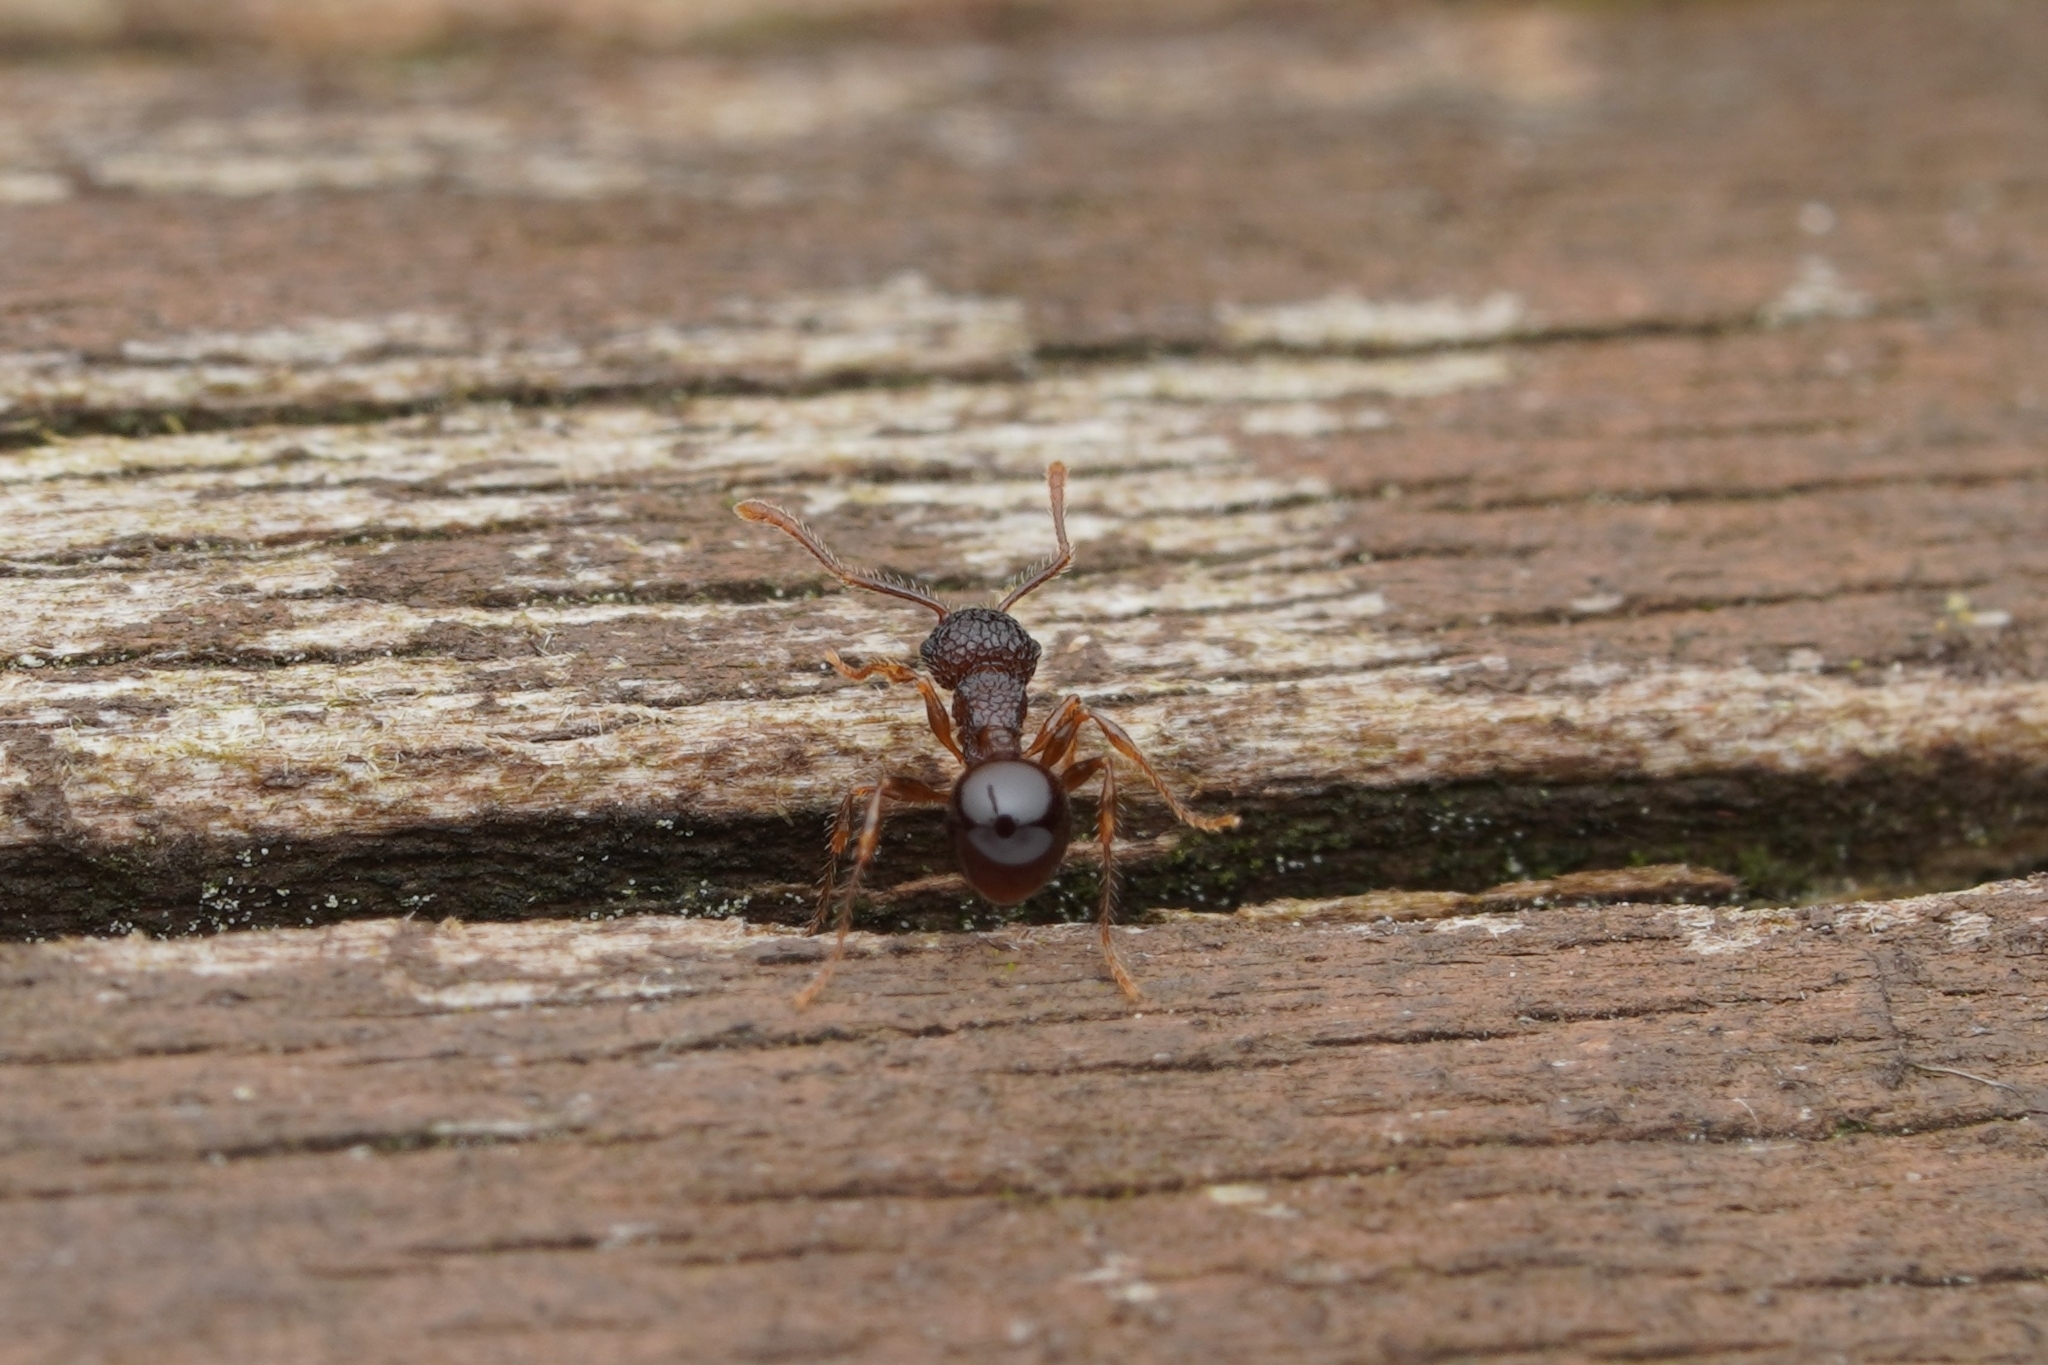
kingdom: Animalia
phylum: Arthropoda
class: Insecta
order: Hymenoptera
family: Formicidae
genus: Pristomyrmex
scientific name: Pristomyrmex punctatus
